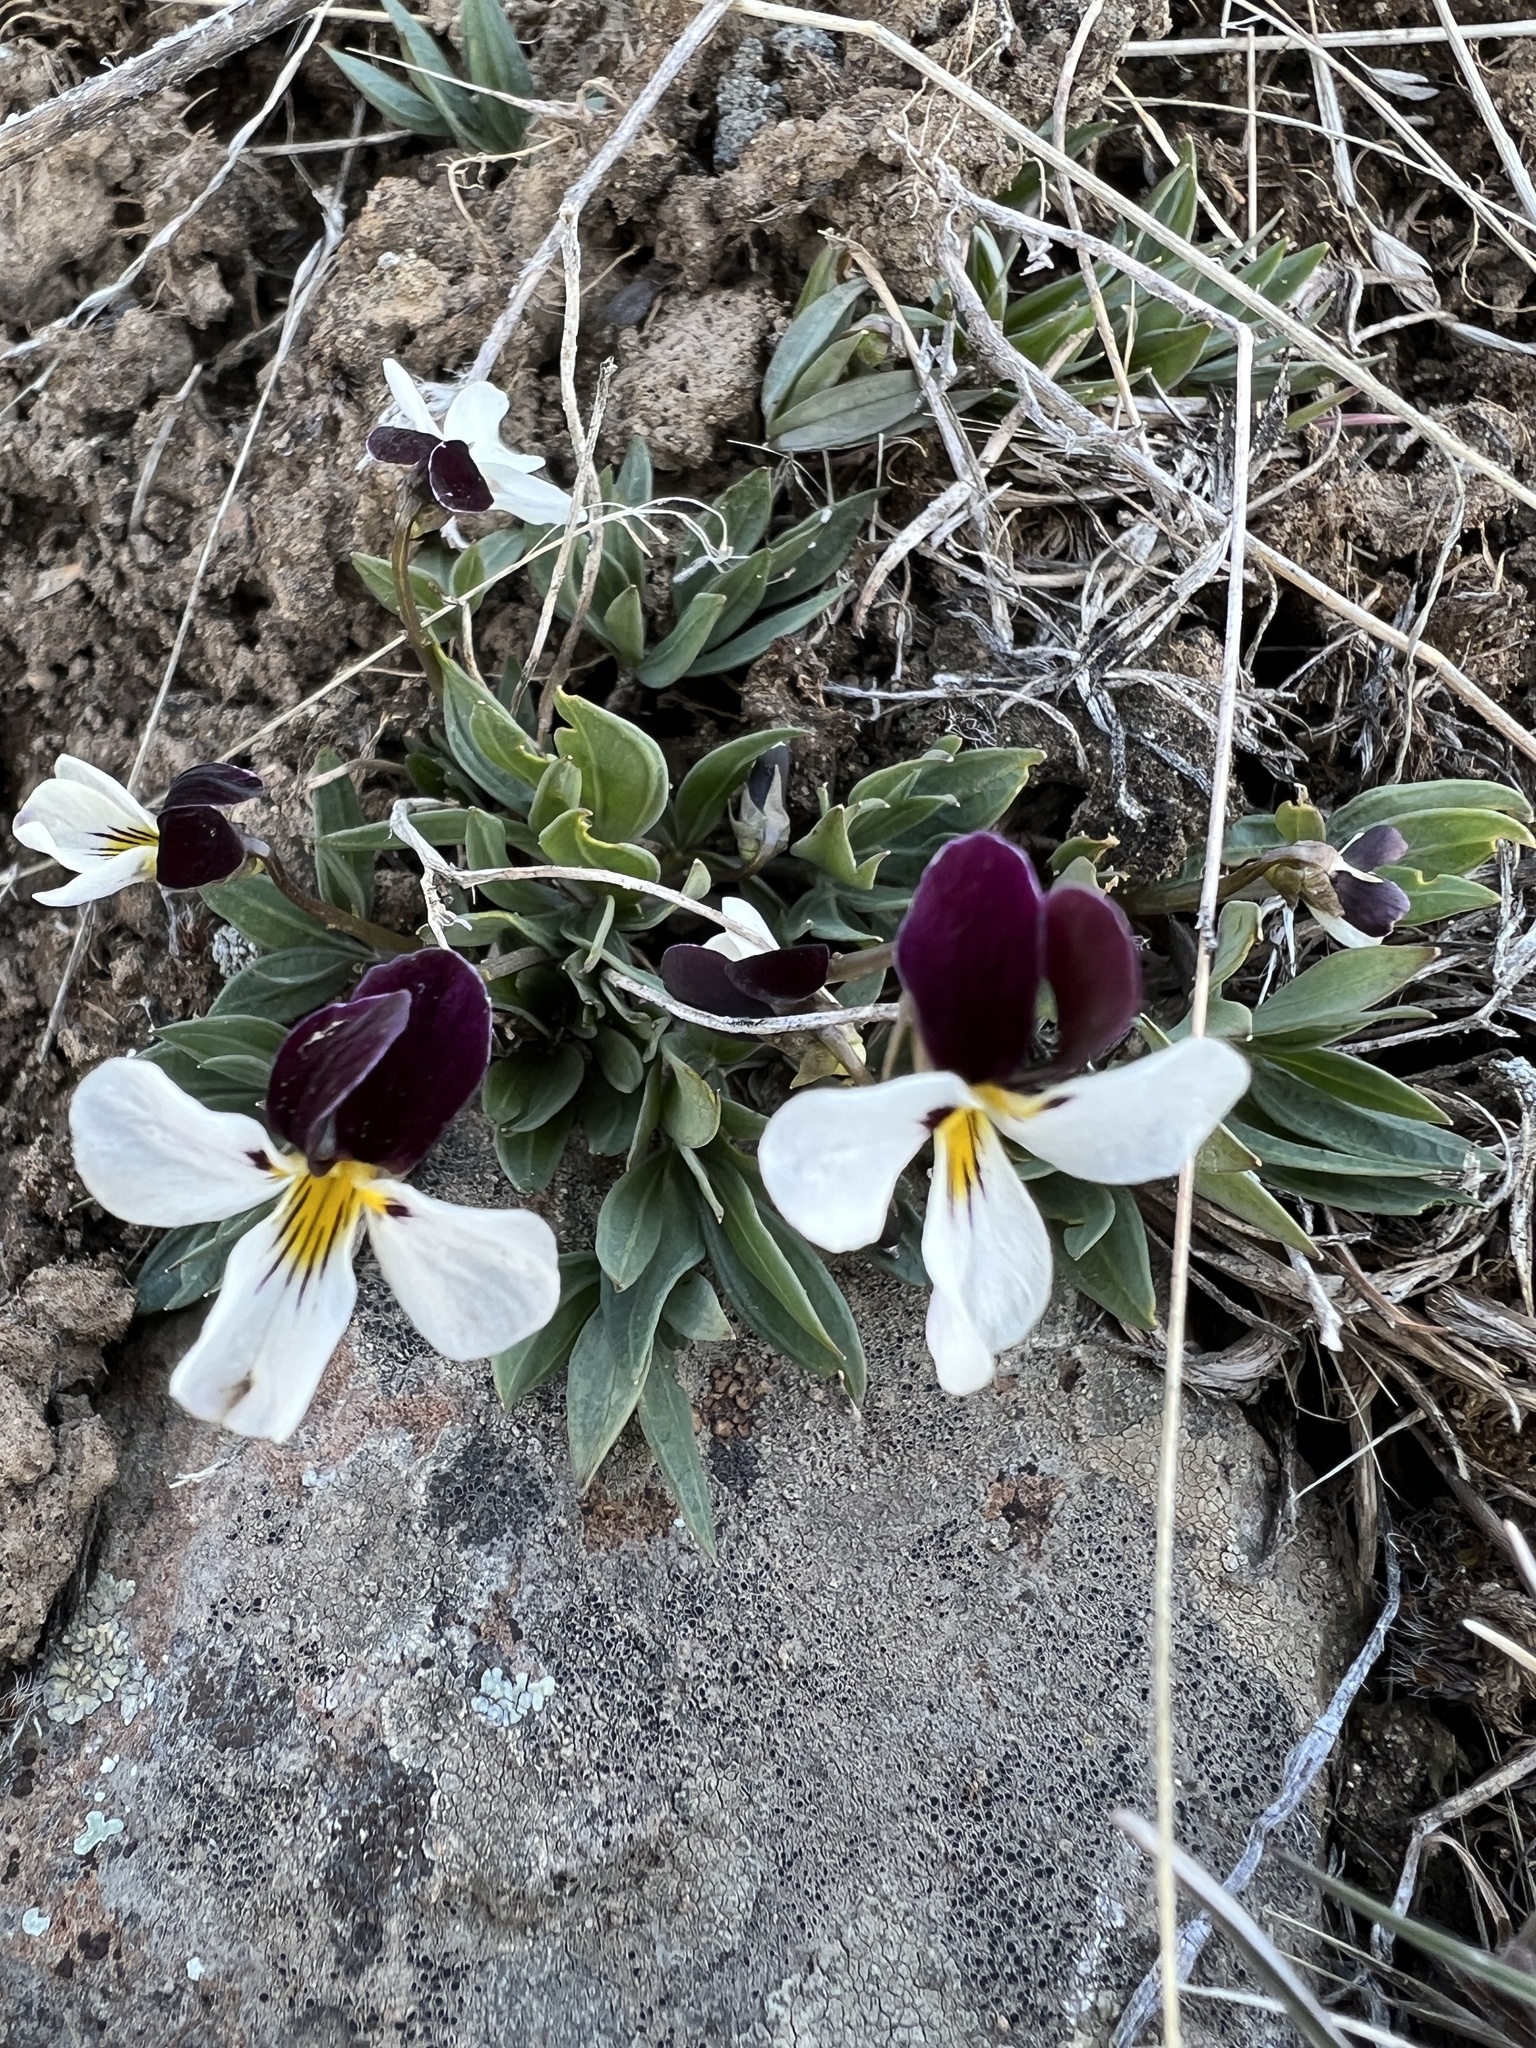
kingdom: Plantae
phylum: Tracheophyta
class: Magnoliopsida
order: Malpighiales
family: Violaceae
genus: Viola
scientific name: Viola trinervata
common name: Sagebrush violet
